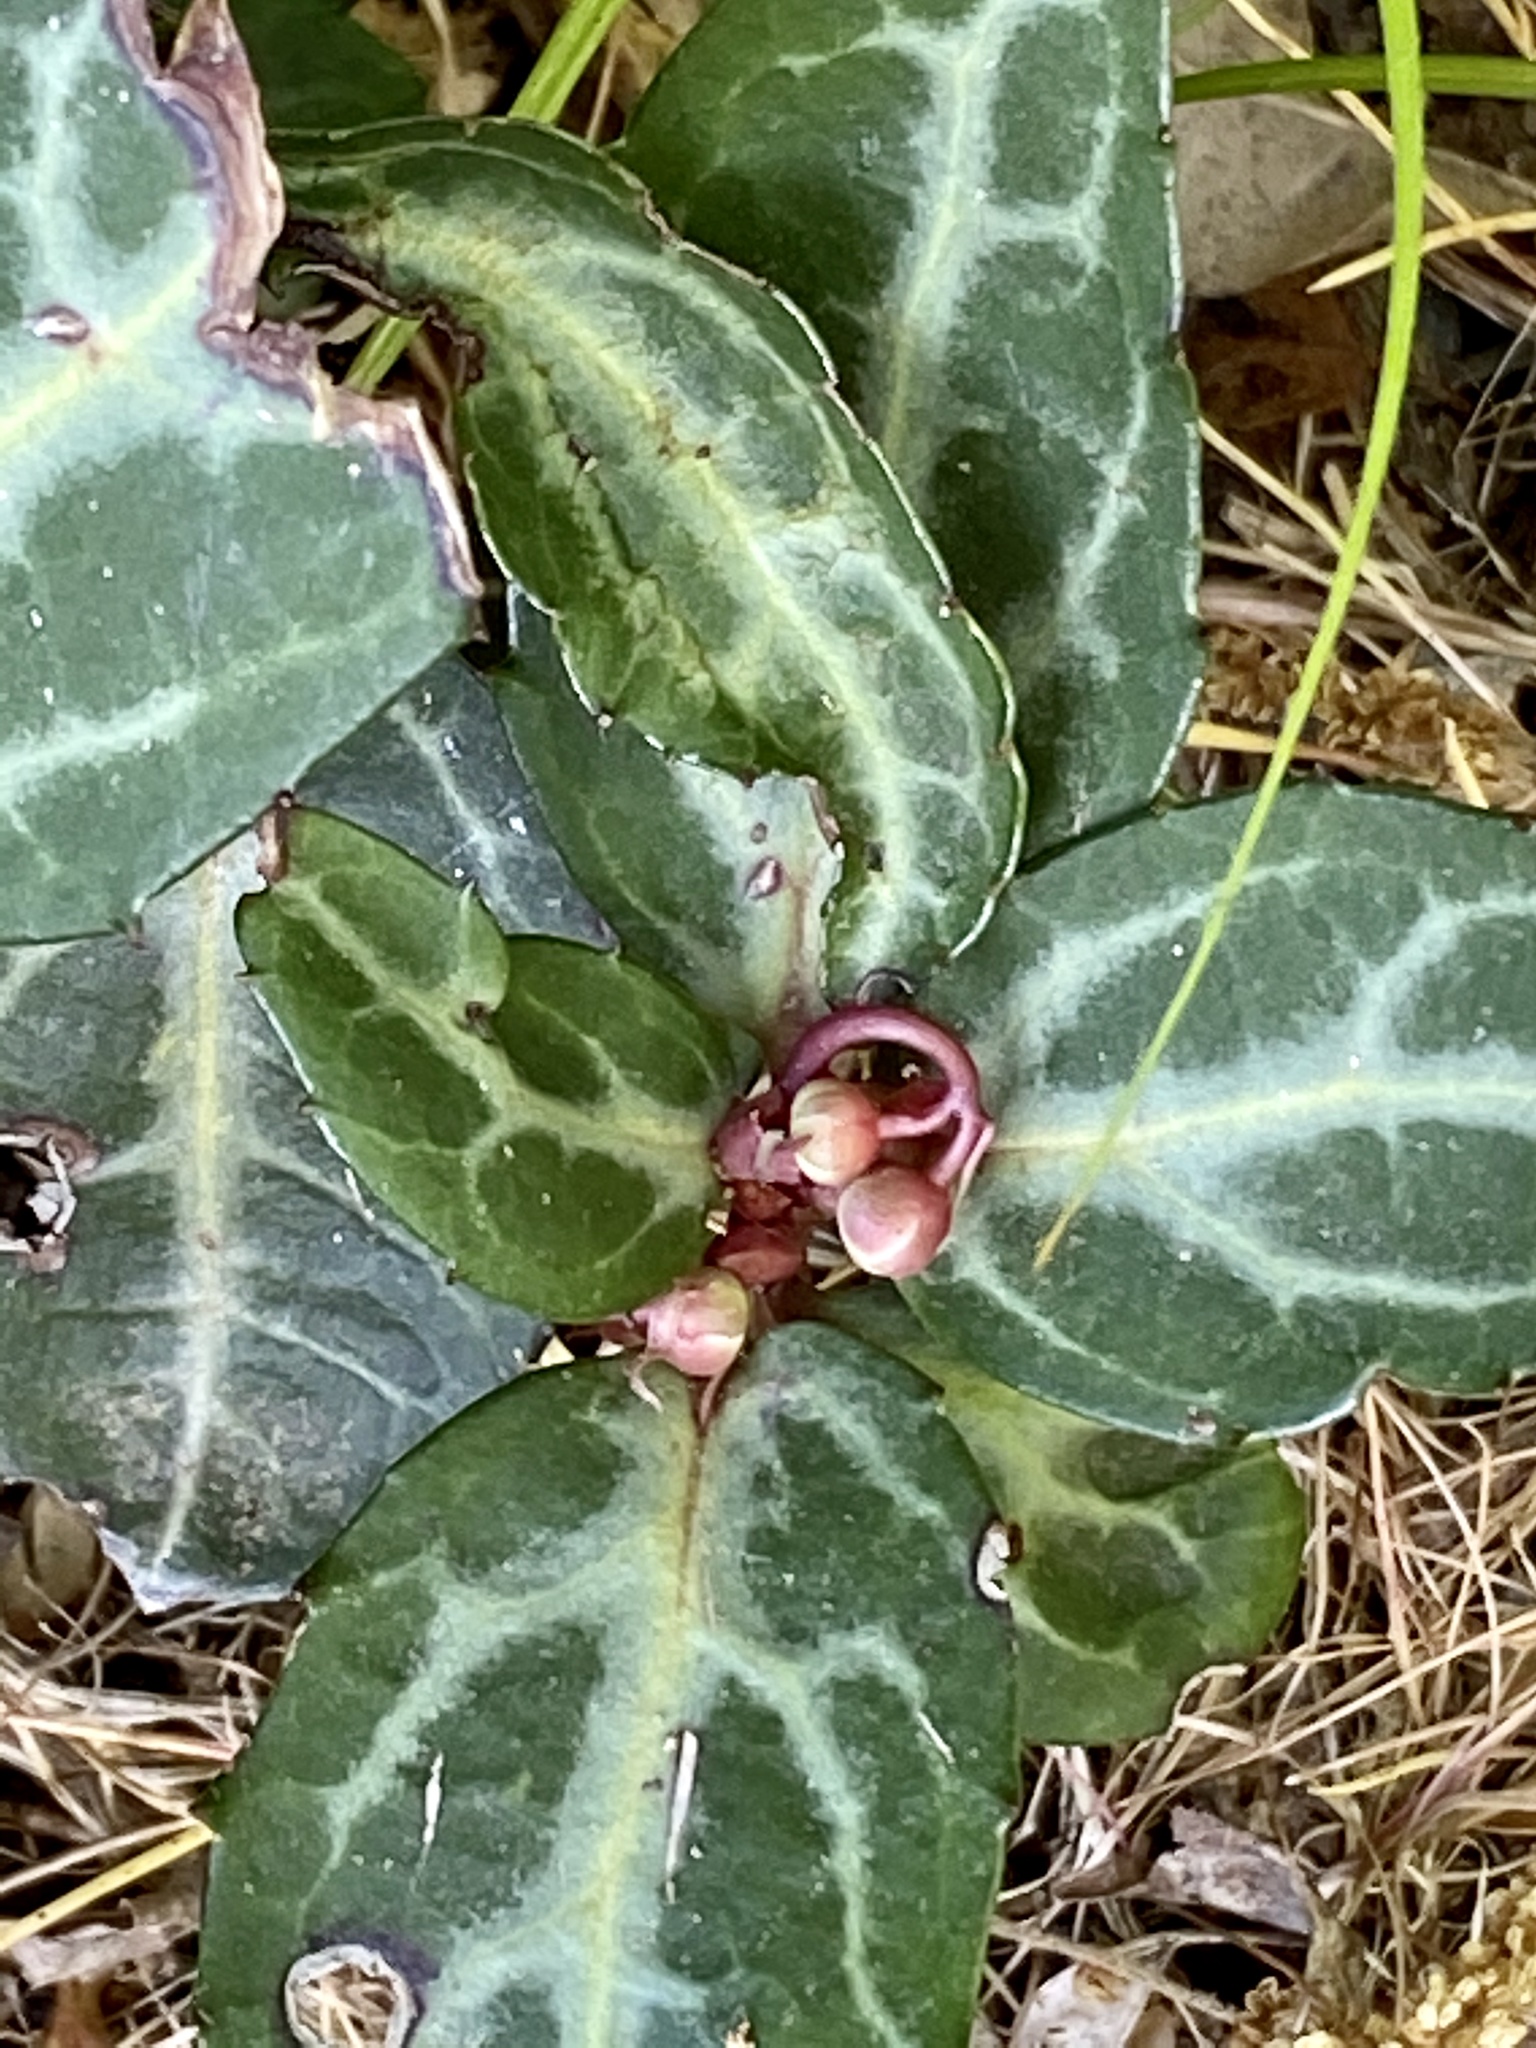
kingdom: Plantae
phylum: Tracheophyta
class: Magnoliopsida
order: Ericales
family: Ericaceae
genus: Chimaphila
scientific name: Chimaphila maculata
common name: Spotted pipsissewa
